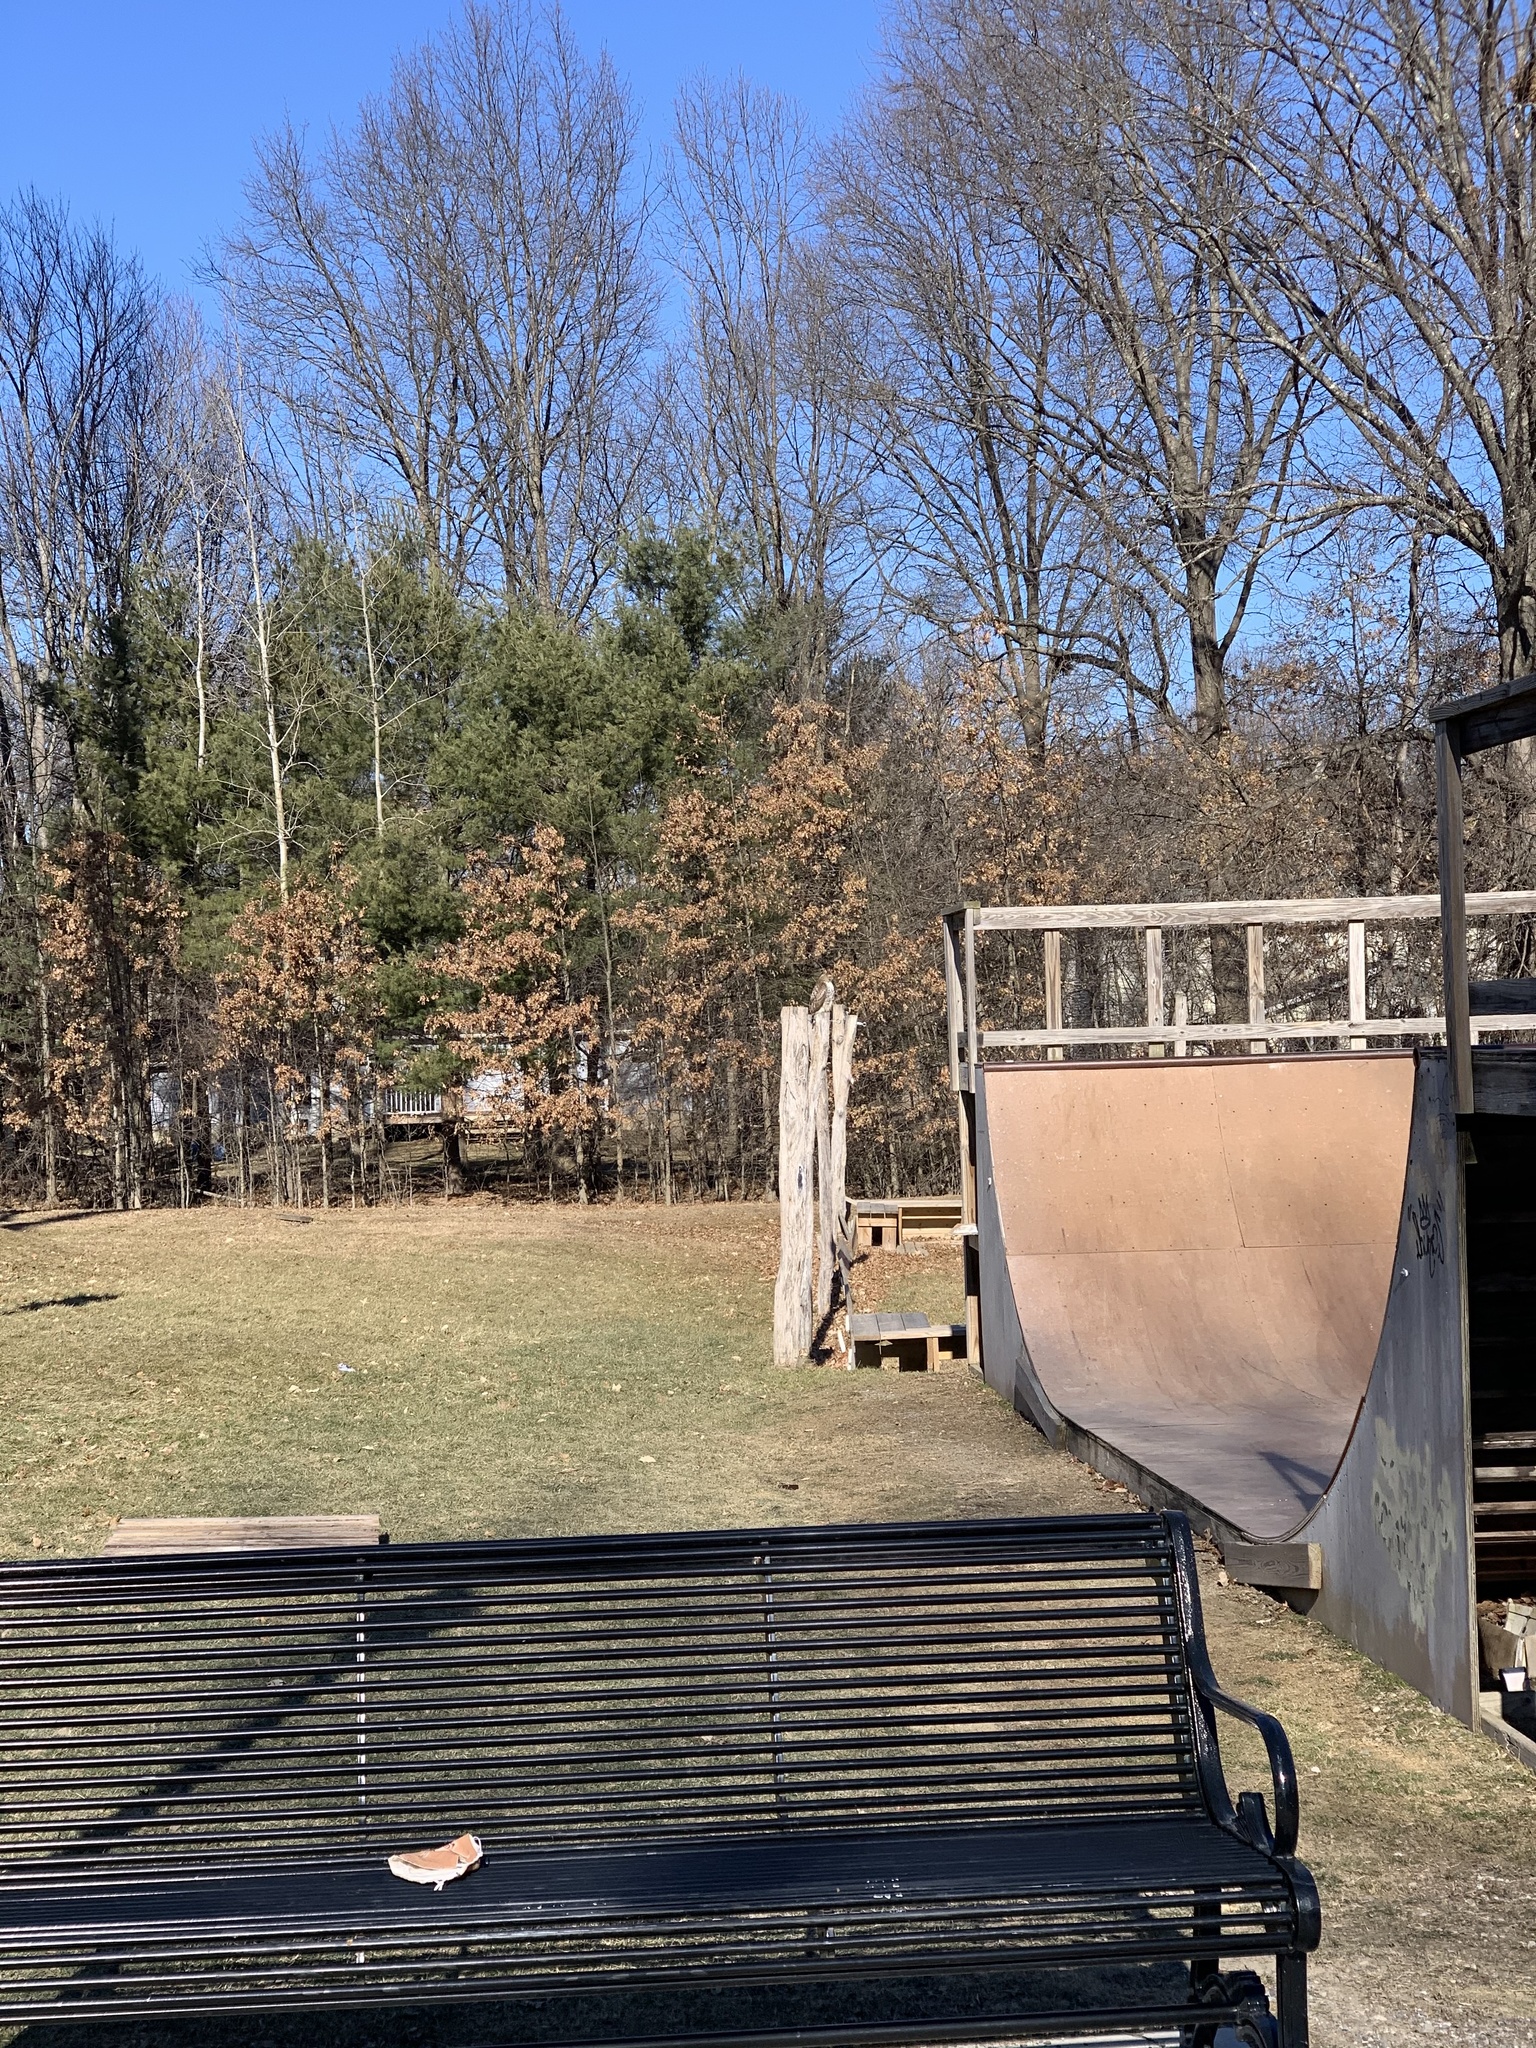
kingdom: Animalia
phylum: Chordata
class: Aves
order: Accipitriformes
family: Accipitridae
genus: Buteo
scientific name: Buteo jamaicensis
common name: Red-tailed hawk
